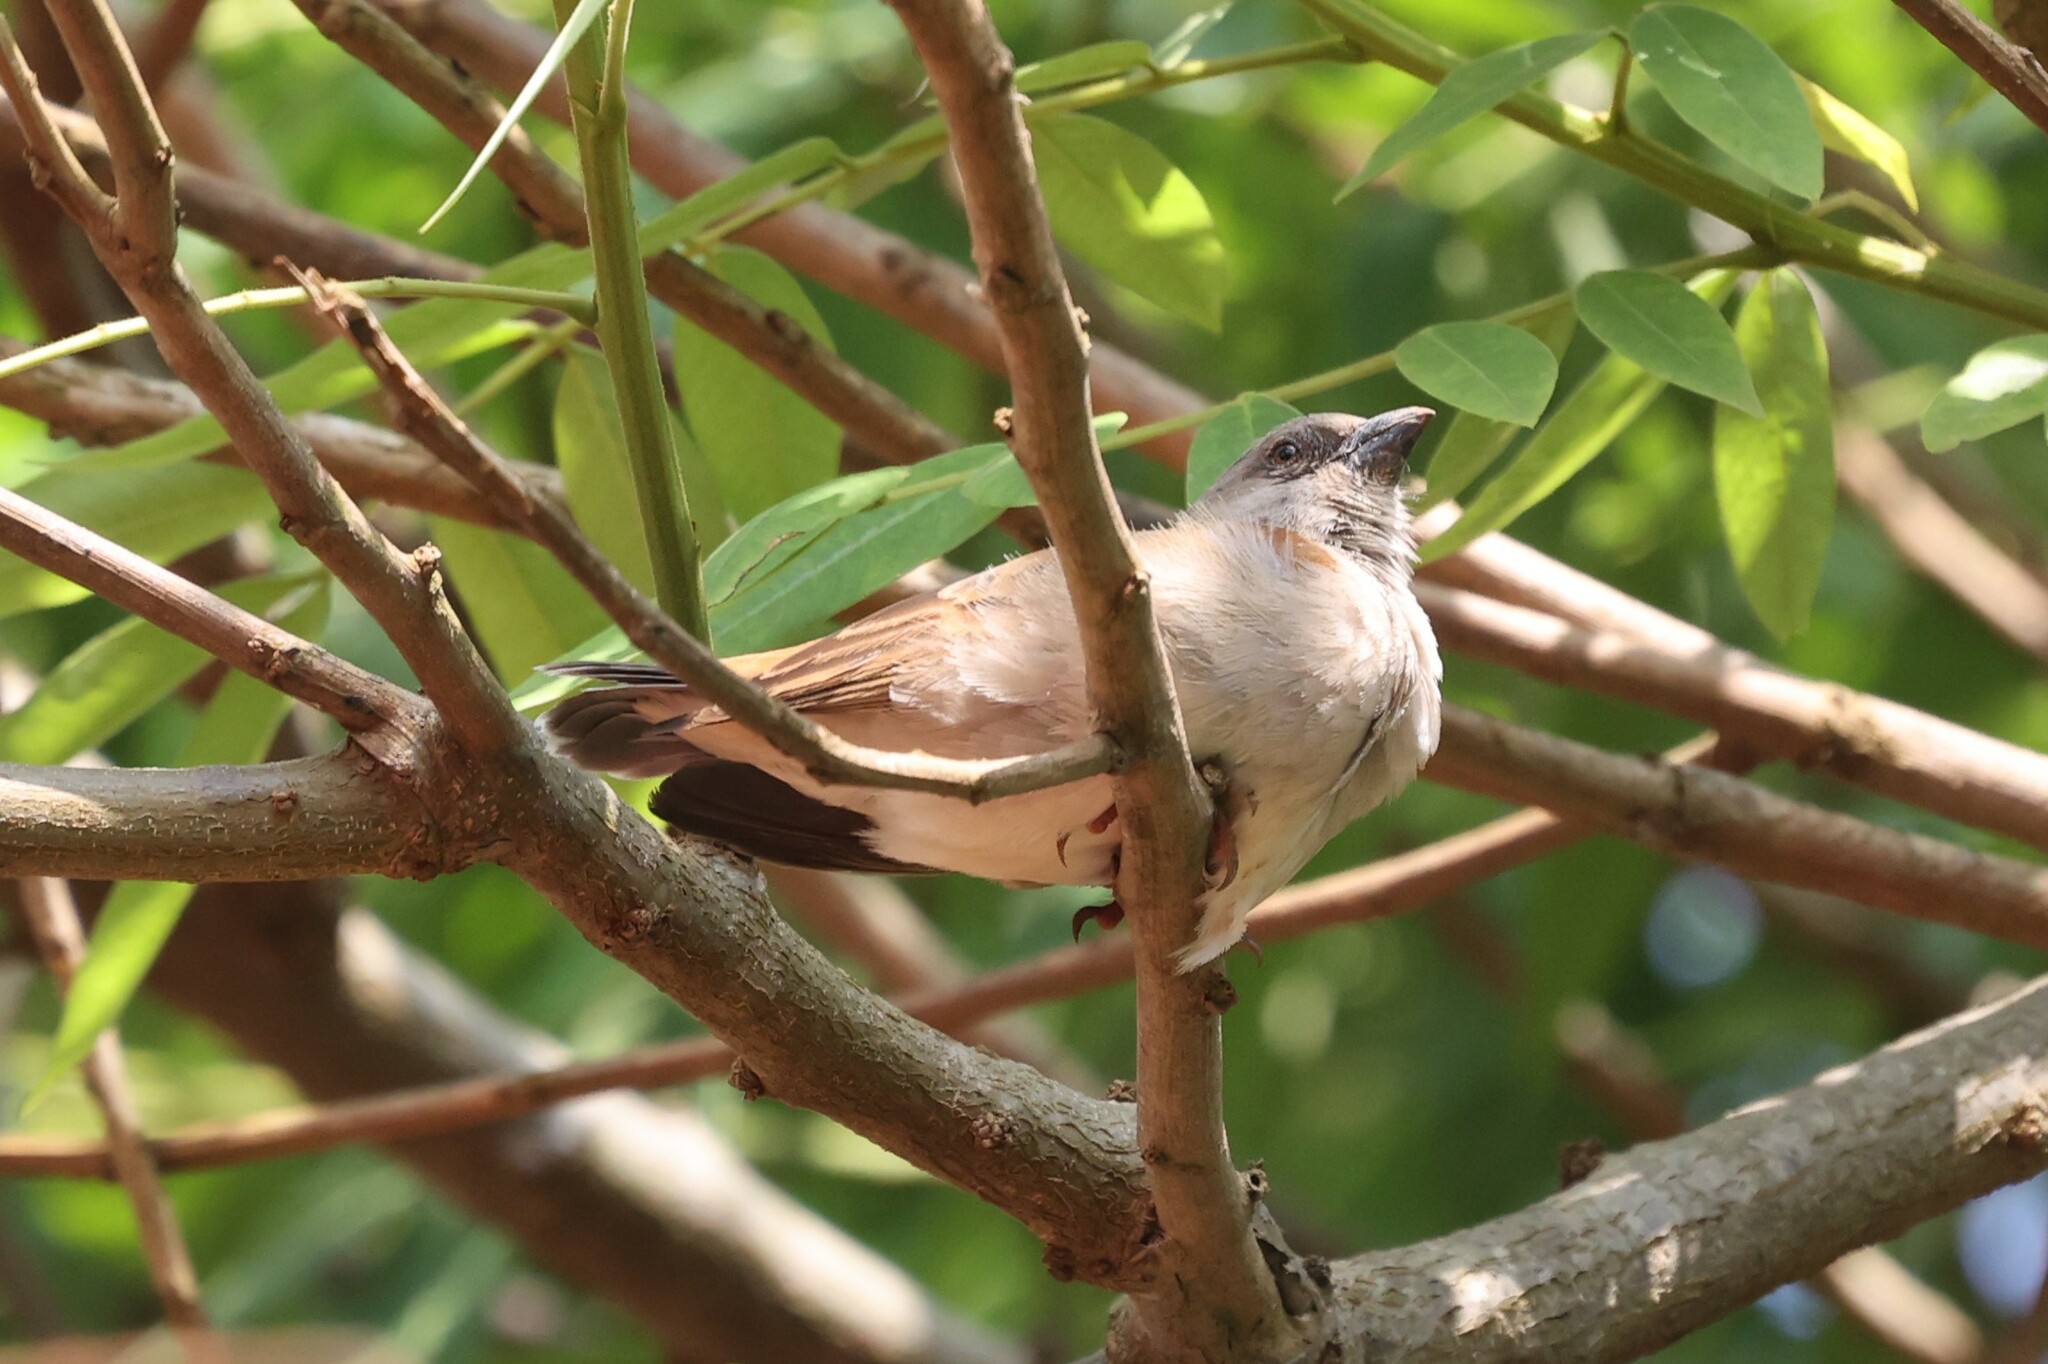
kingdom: Animalia
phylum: Chordata
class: Aves
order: Passeriformes
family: Passeridae
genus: Passer
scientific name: Passer griseus
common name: Northern grey-headed sparrow
